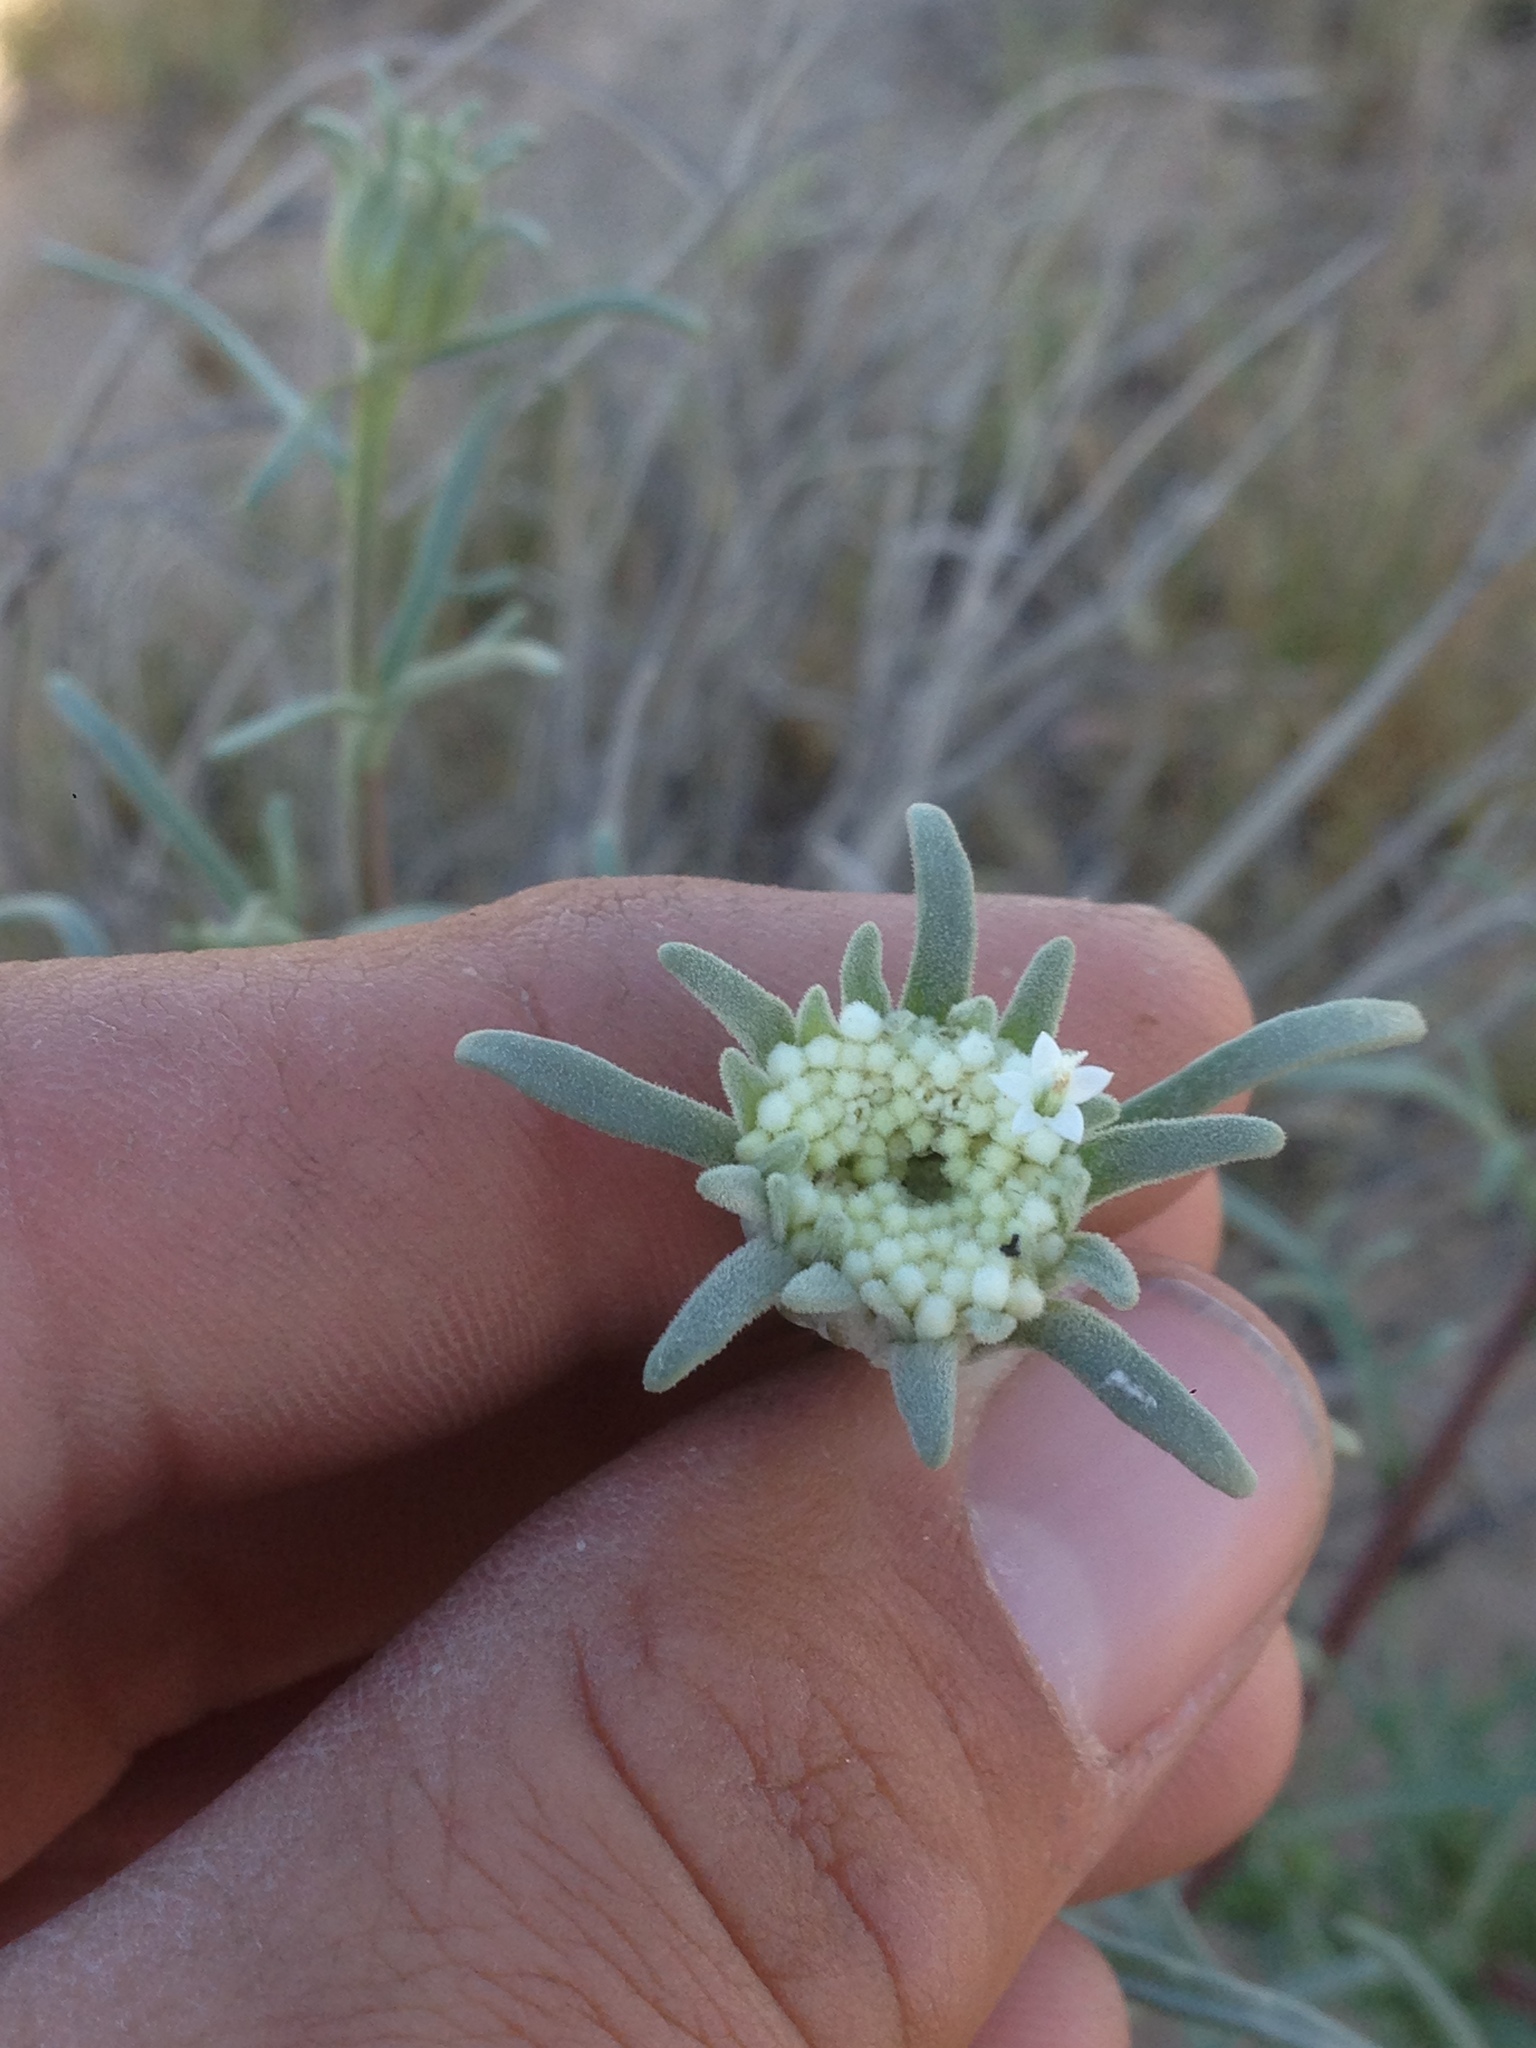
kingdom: Plantae
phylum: Tracheophyta
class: Magnoliopsida
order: Asterales
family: Asteraceae
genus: Chaenactis
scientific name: Chaenactis xantiana
